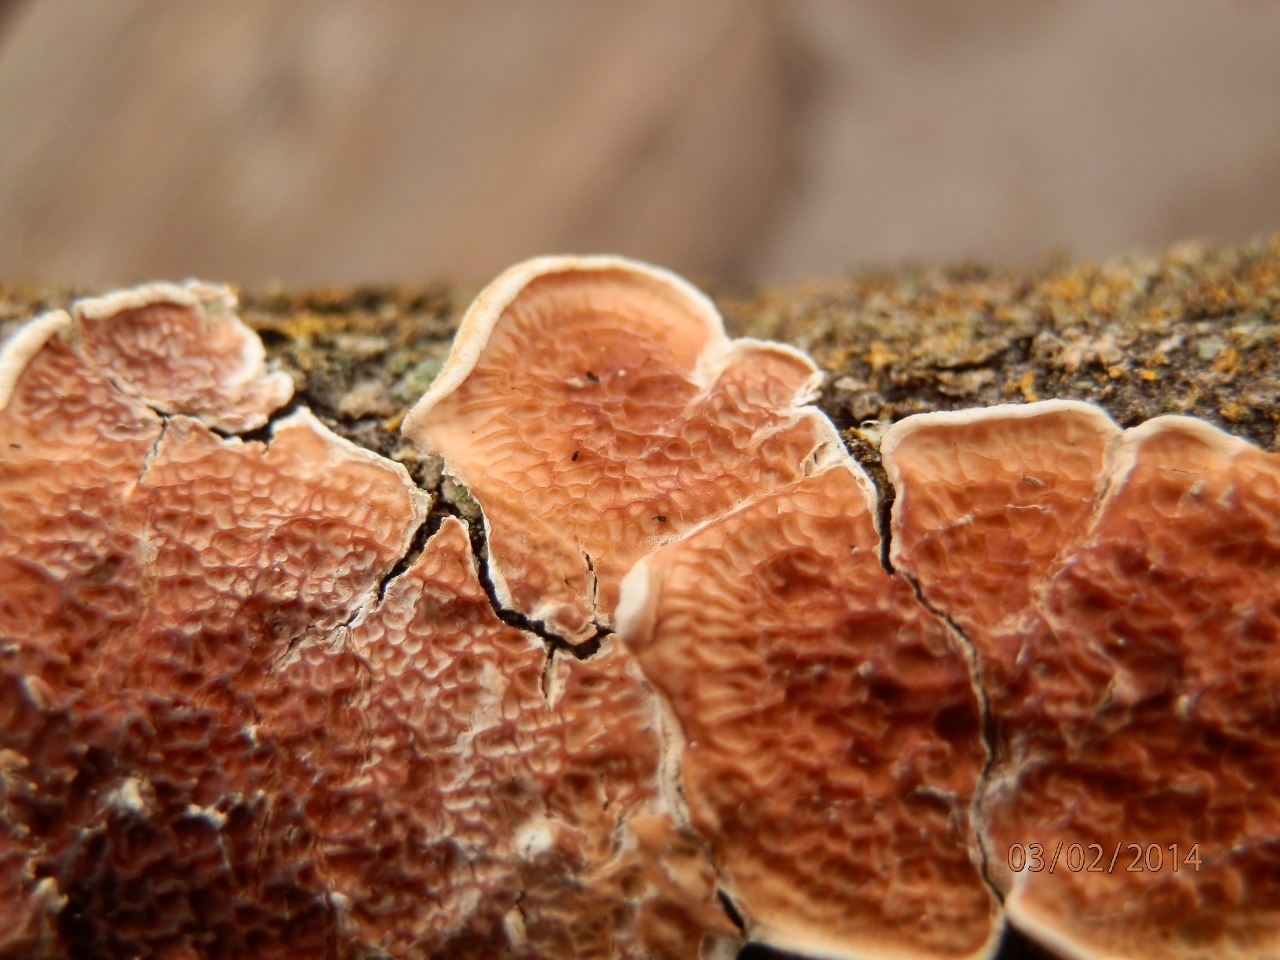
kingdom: Fungi
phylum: Basidiomycota
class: Agaricomycetes
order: Polyporales
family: Irpicaceae
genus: Byssomerulius
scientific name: Byssomerulius corium
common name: Netted crust
